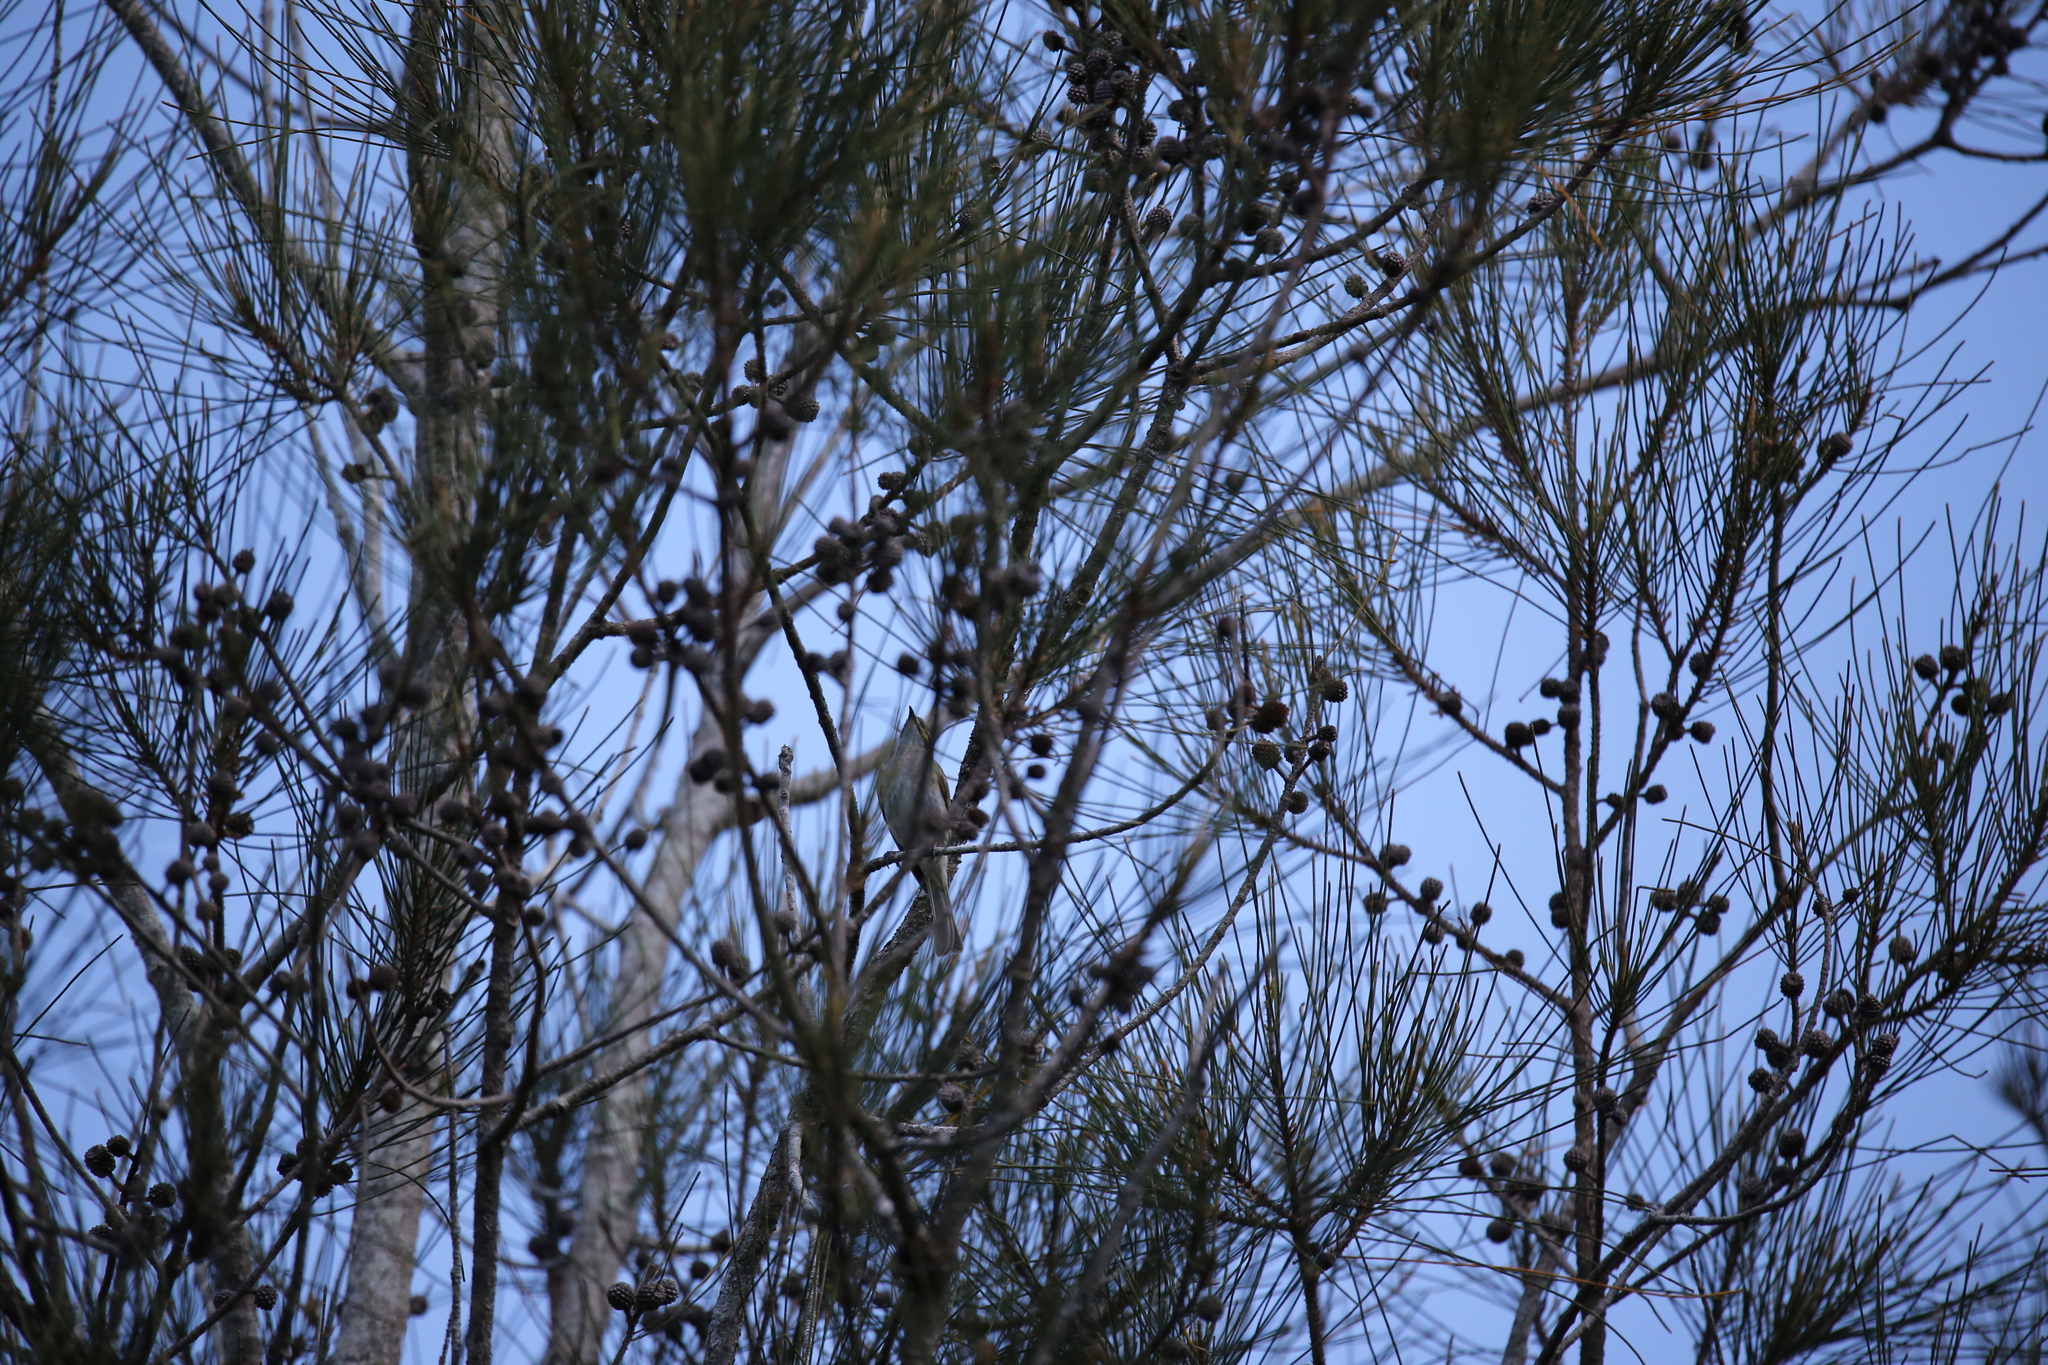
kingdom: Animalia
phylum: Chordata
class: Aves
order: Passeriformes
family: Meliphagidae
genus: Caligavis
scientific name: Caligavis chrysops
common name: Yellow-faced honeyeater
